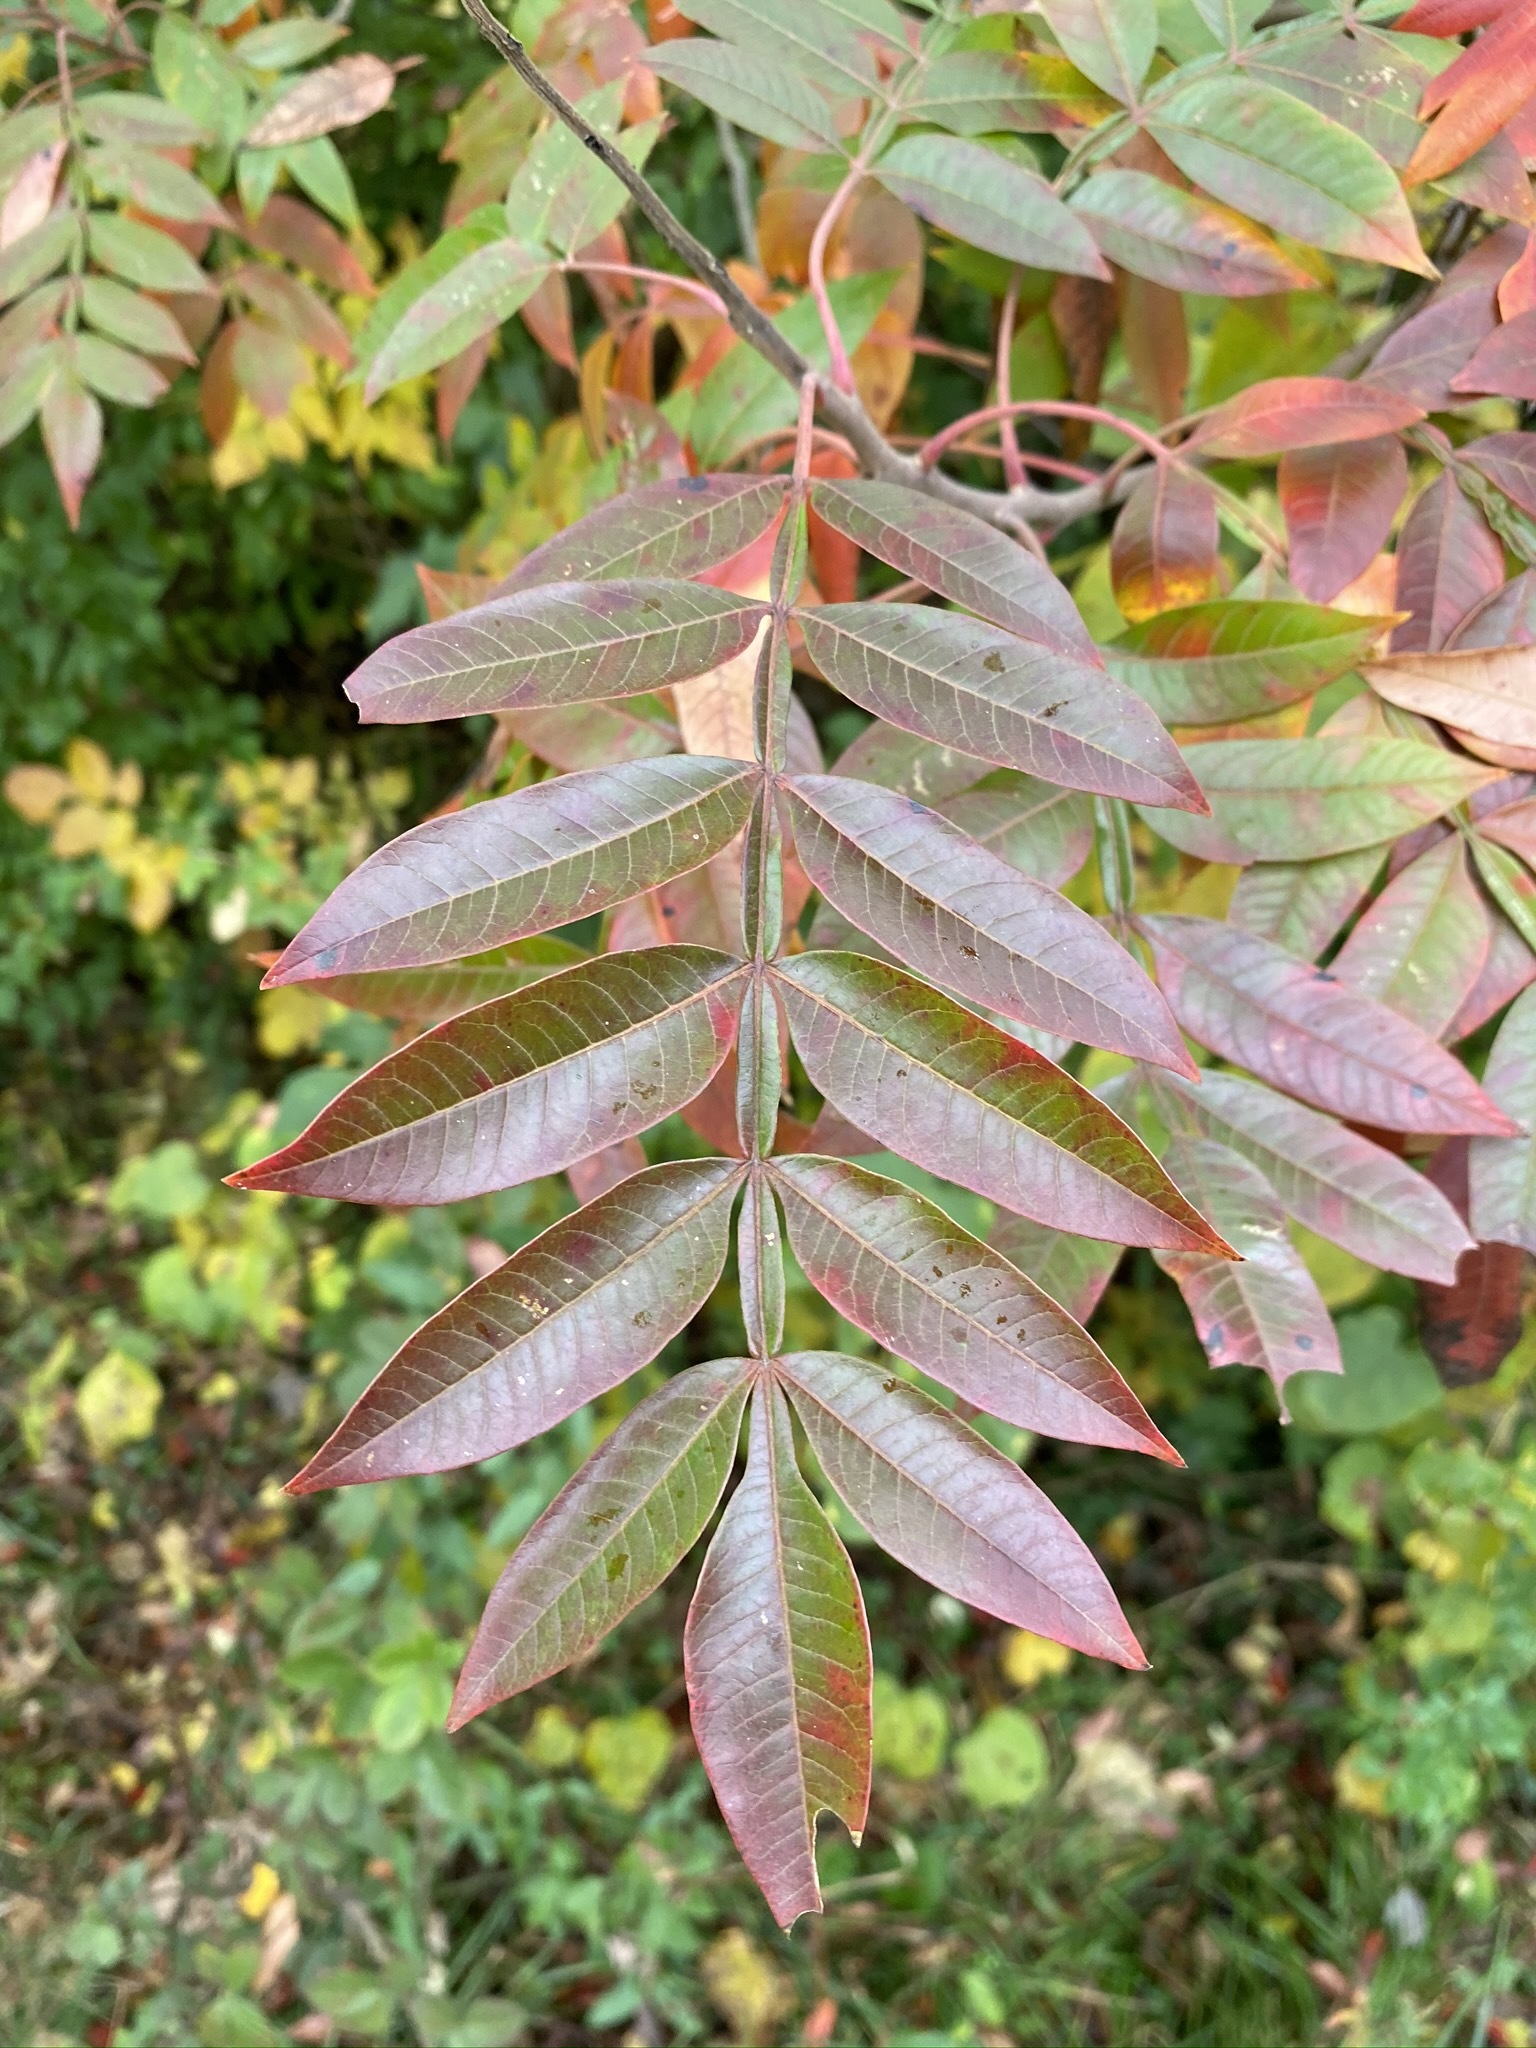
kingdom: Plantae
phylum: Tracheophyta
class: Magnoliopsida
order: Sapindales
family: Anacardiaceae
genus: Rhus
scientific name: Rhus copallina
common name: Shining sumac
